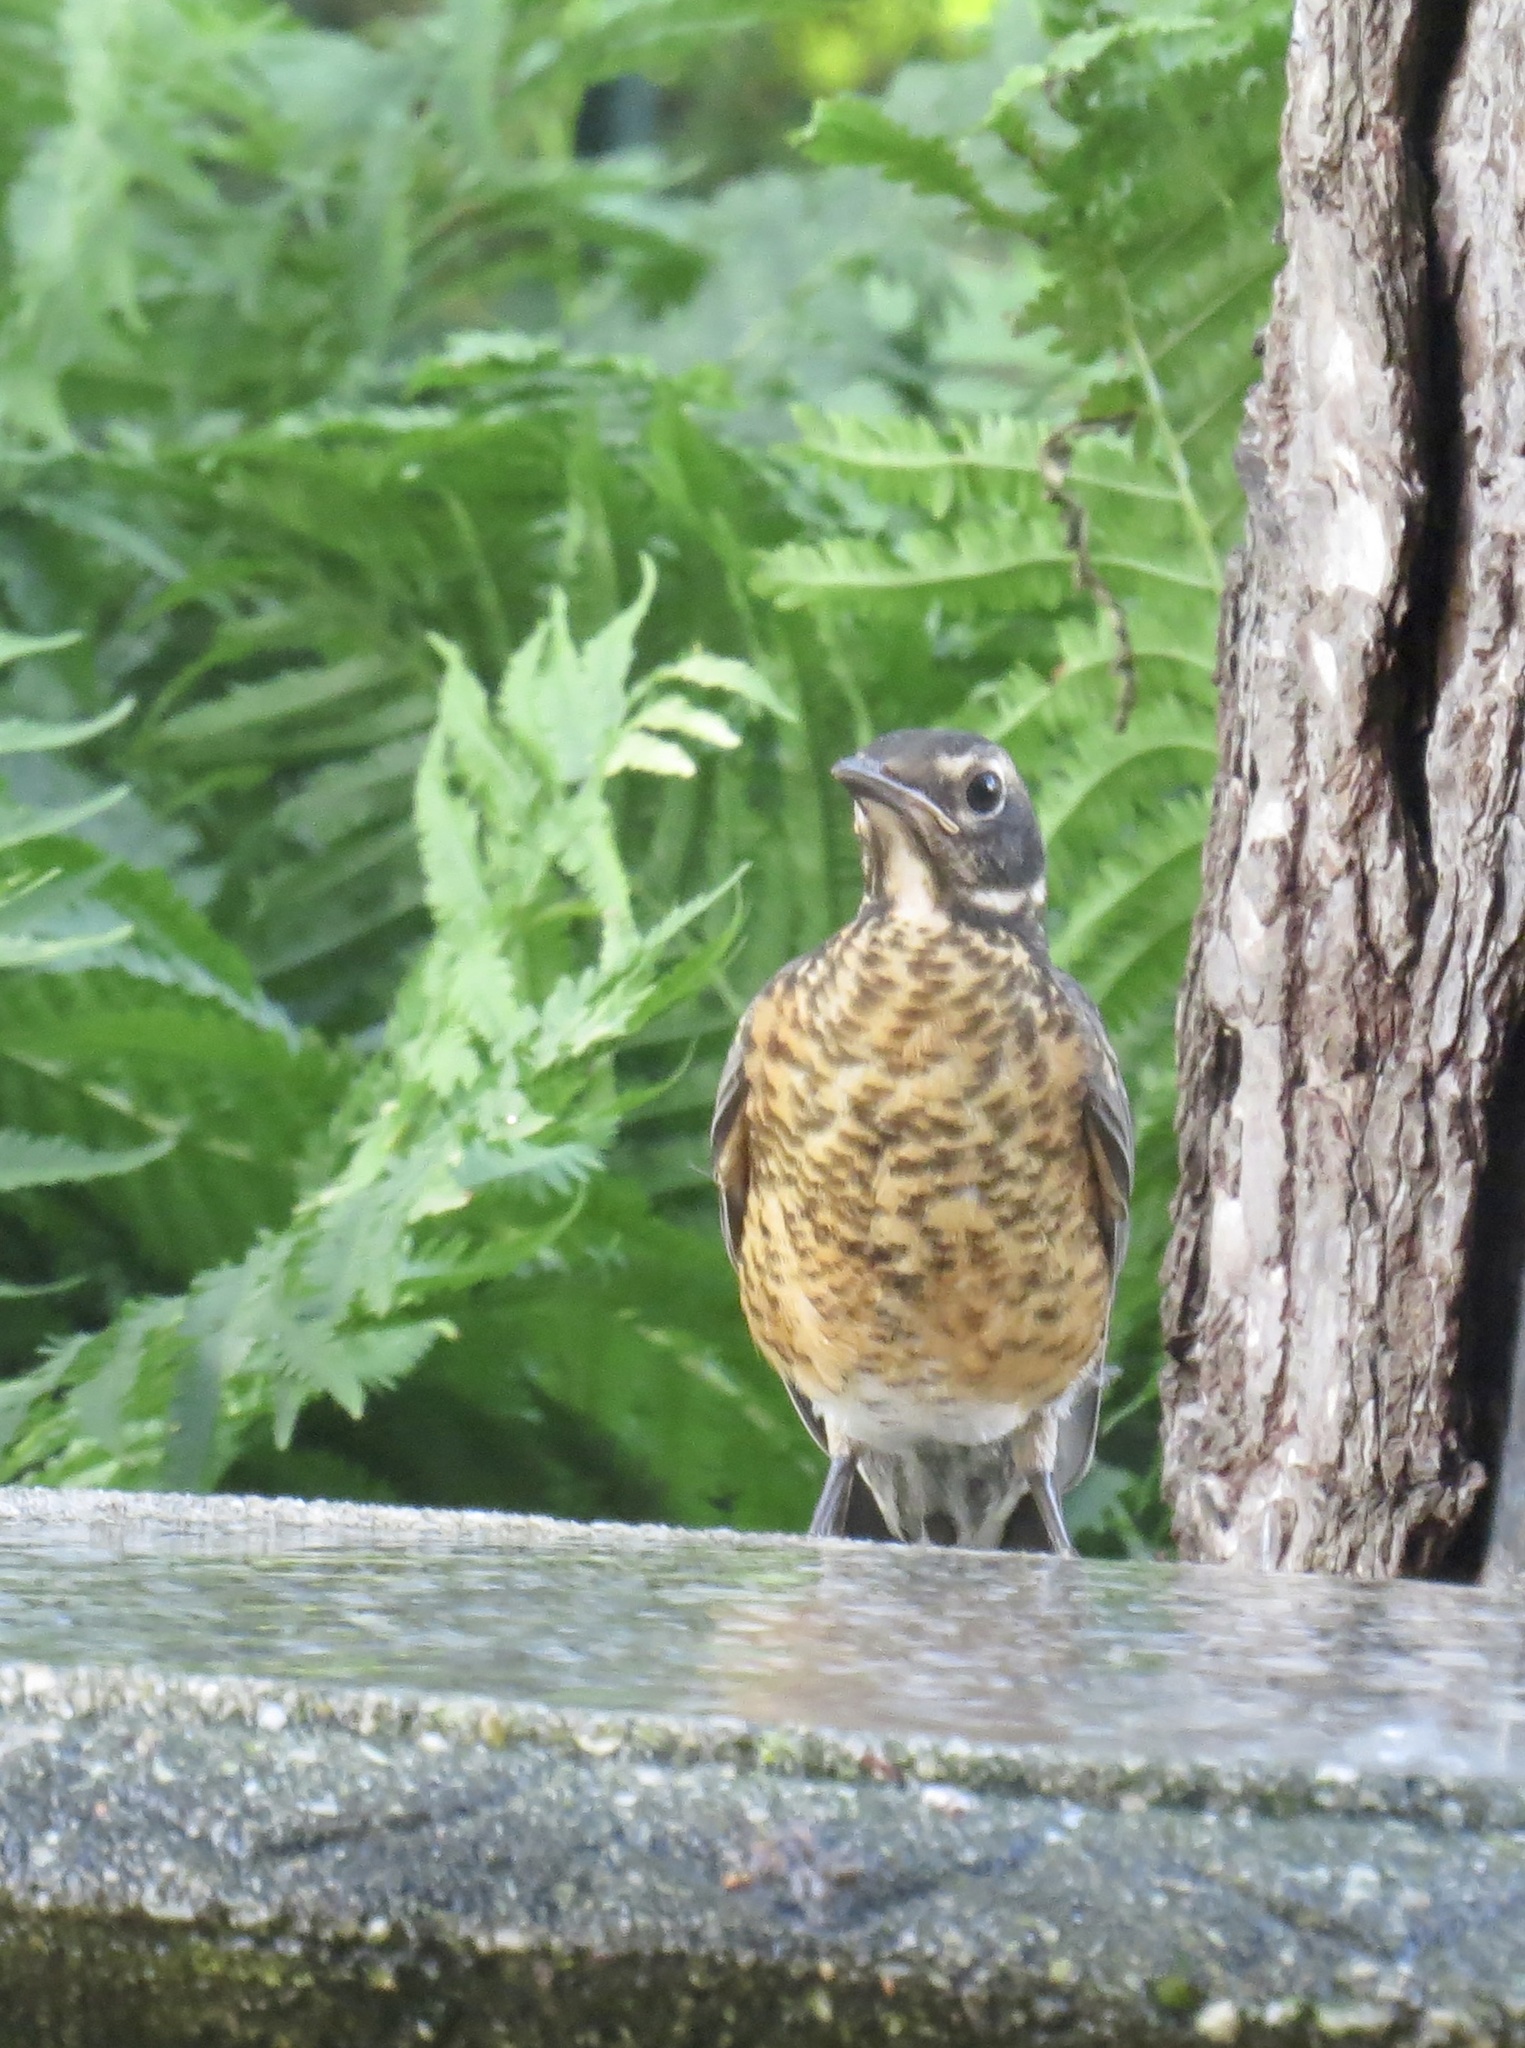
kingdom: Animalia
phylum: Chordata
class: Aves
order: Passeriformes
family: Turdidae
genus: Turdus
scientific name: Turdus migratorius
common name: American robin
